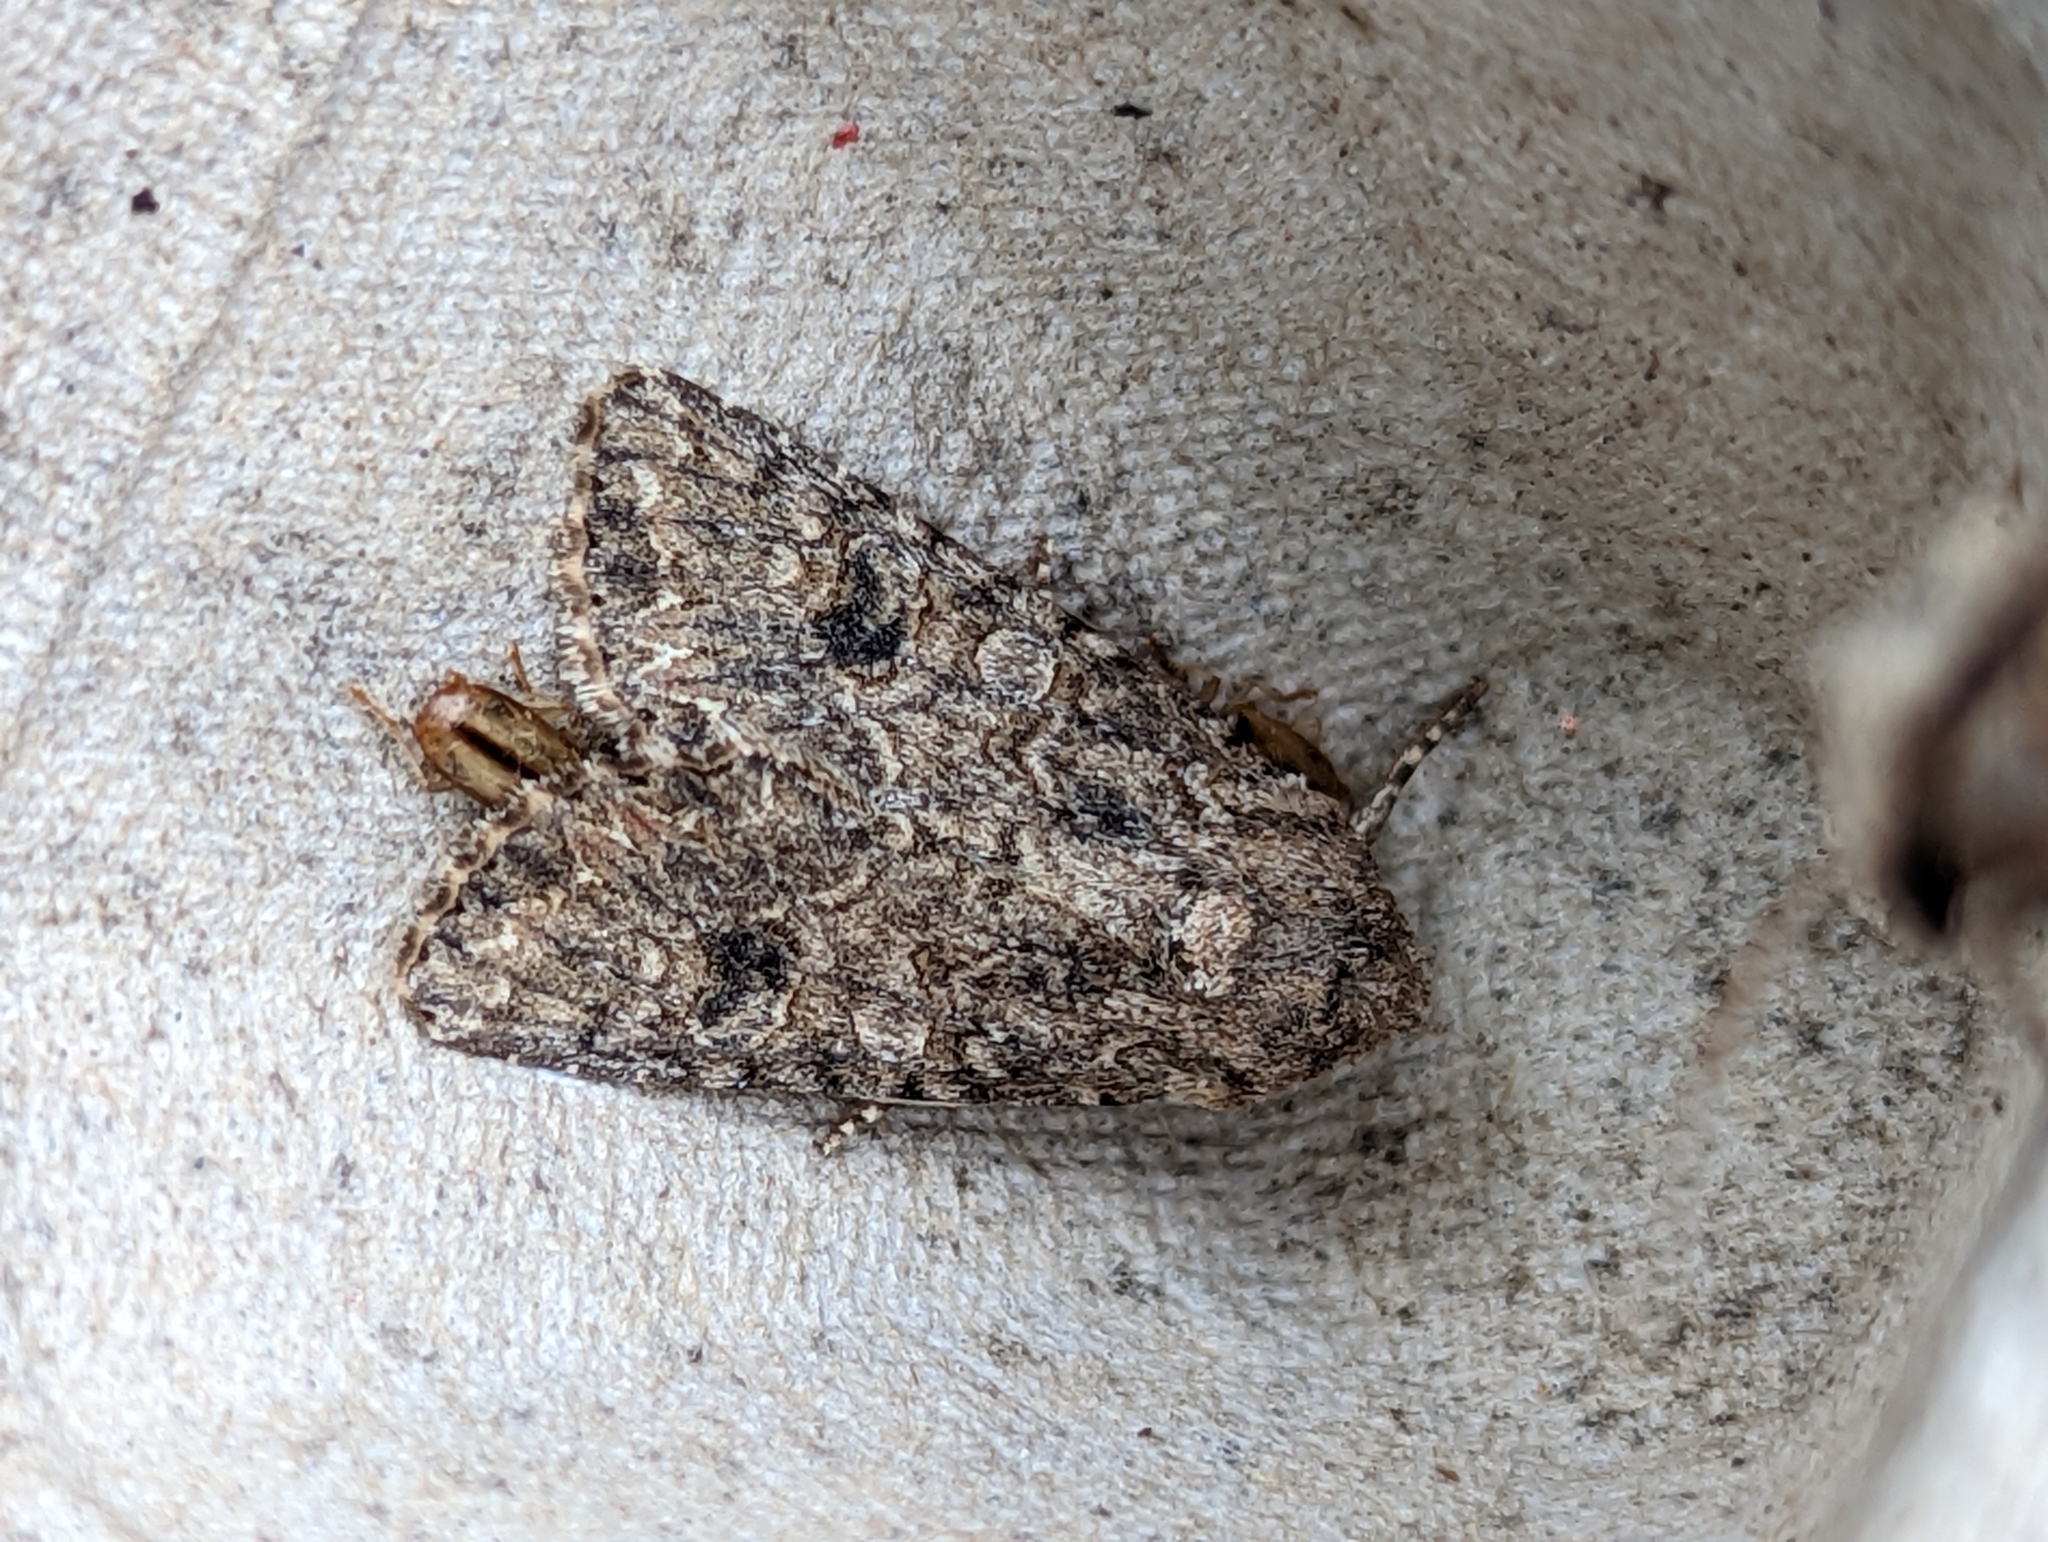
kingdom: Animalia
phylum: Arthropoda
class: Insecta
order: Lepidoptera
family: Noctuidae
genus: Anarta
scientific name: Anarta trifolii
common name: Clover cutworm moth
